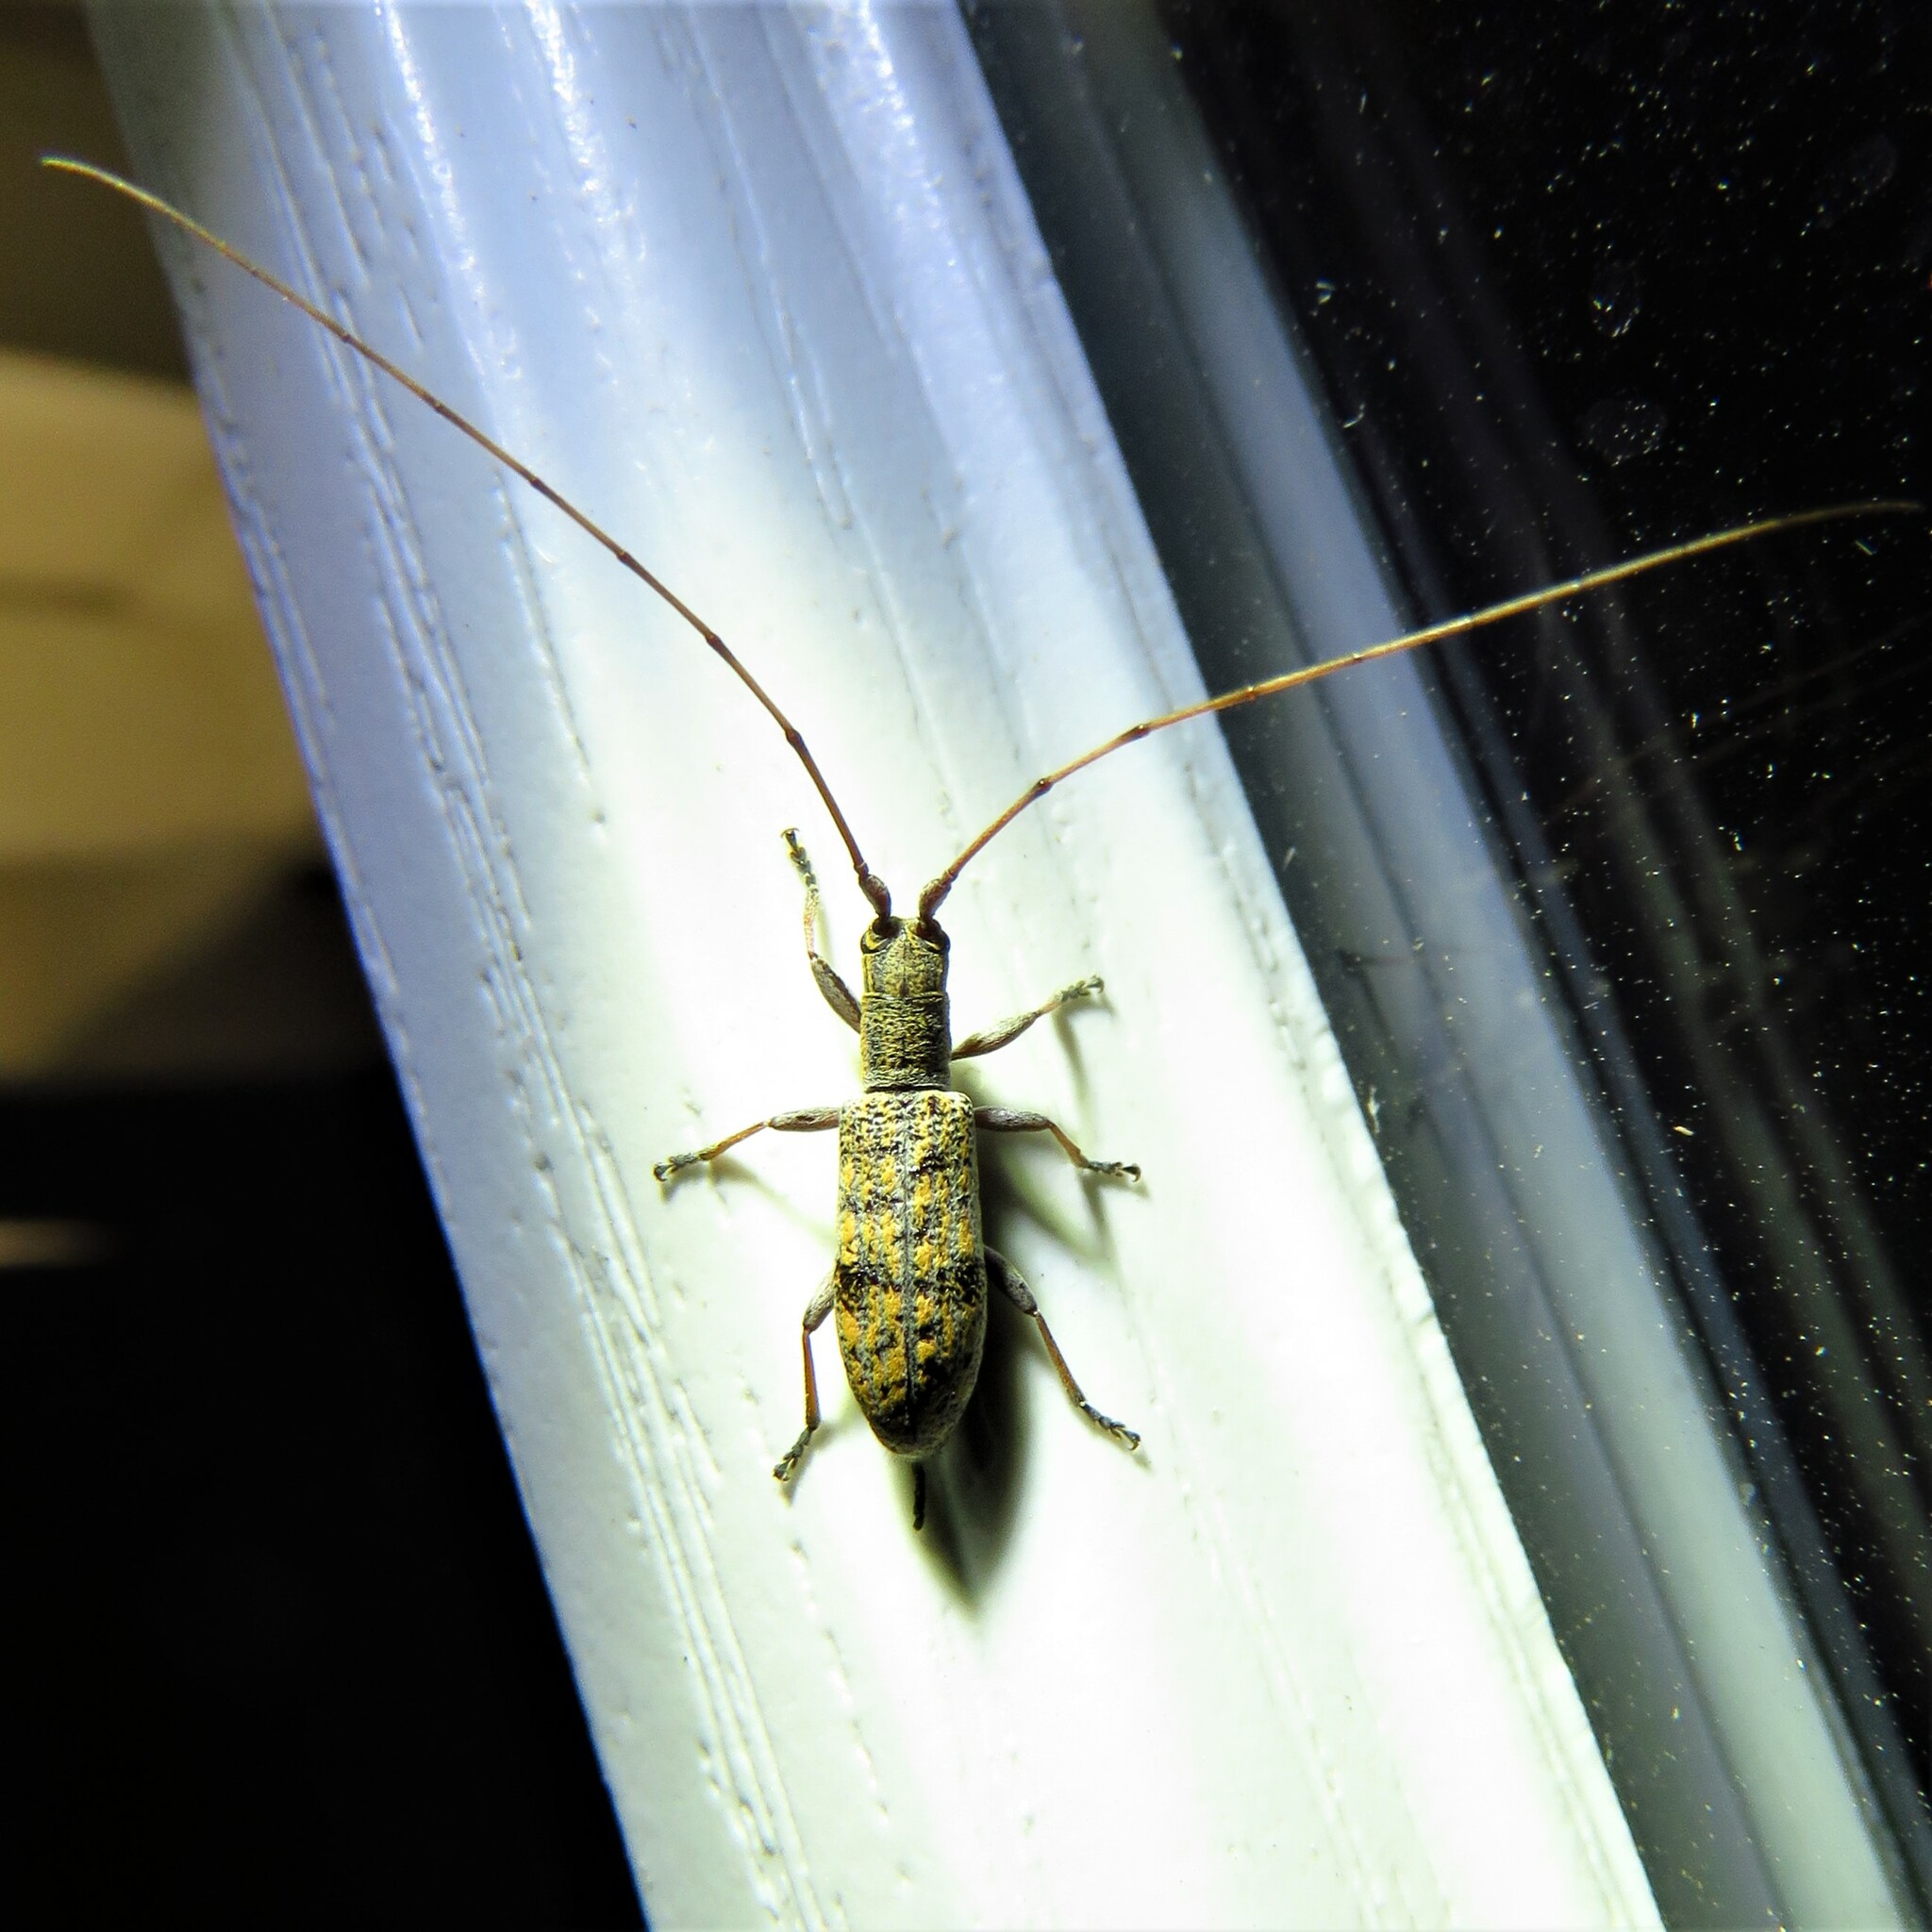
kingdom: Animalia
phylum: Arthropoda
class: Insecta
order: Coleoptera
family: Cerambycidae
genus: Dorcaschema
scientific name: Dorcaschema alternatum
